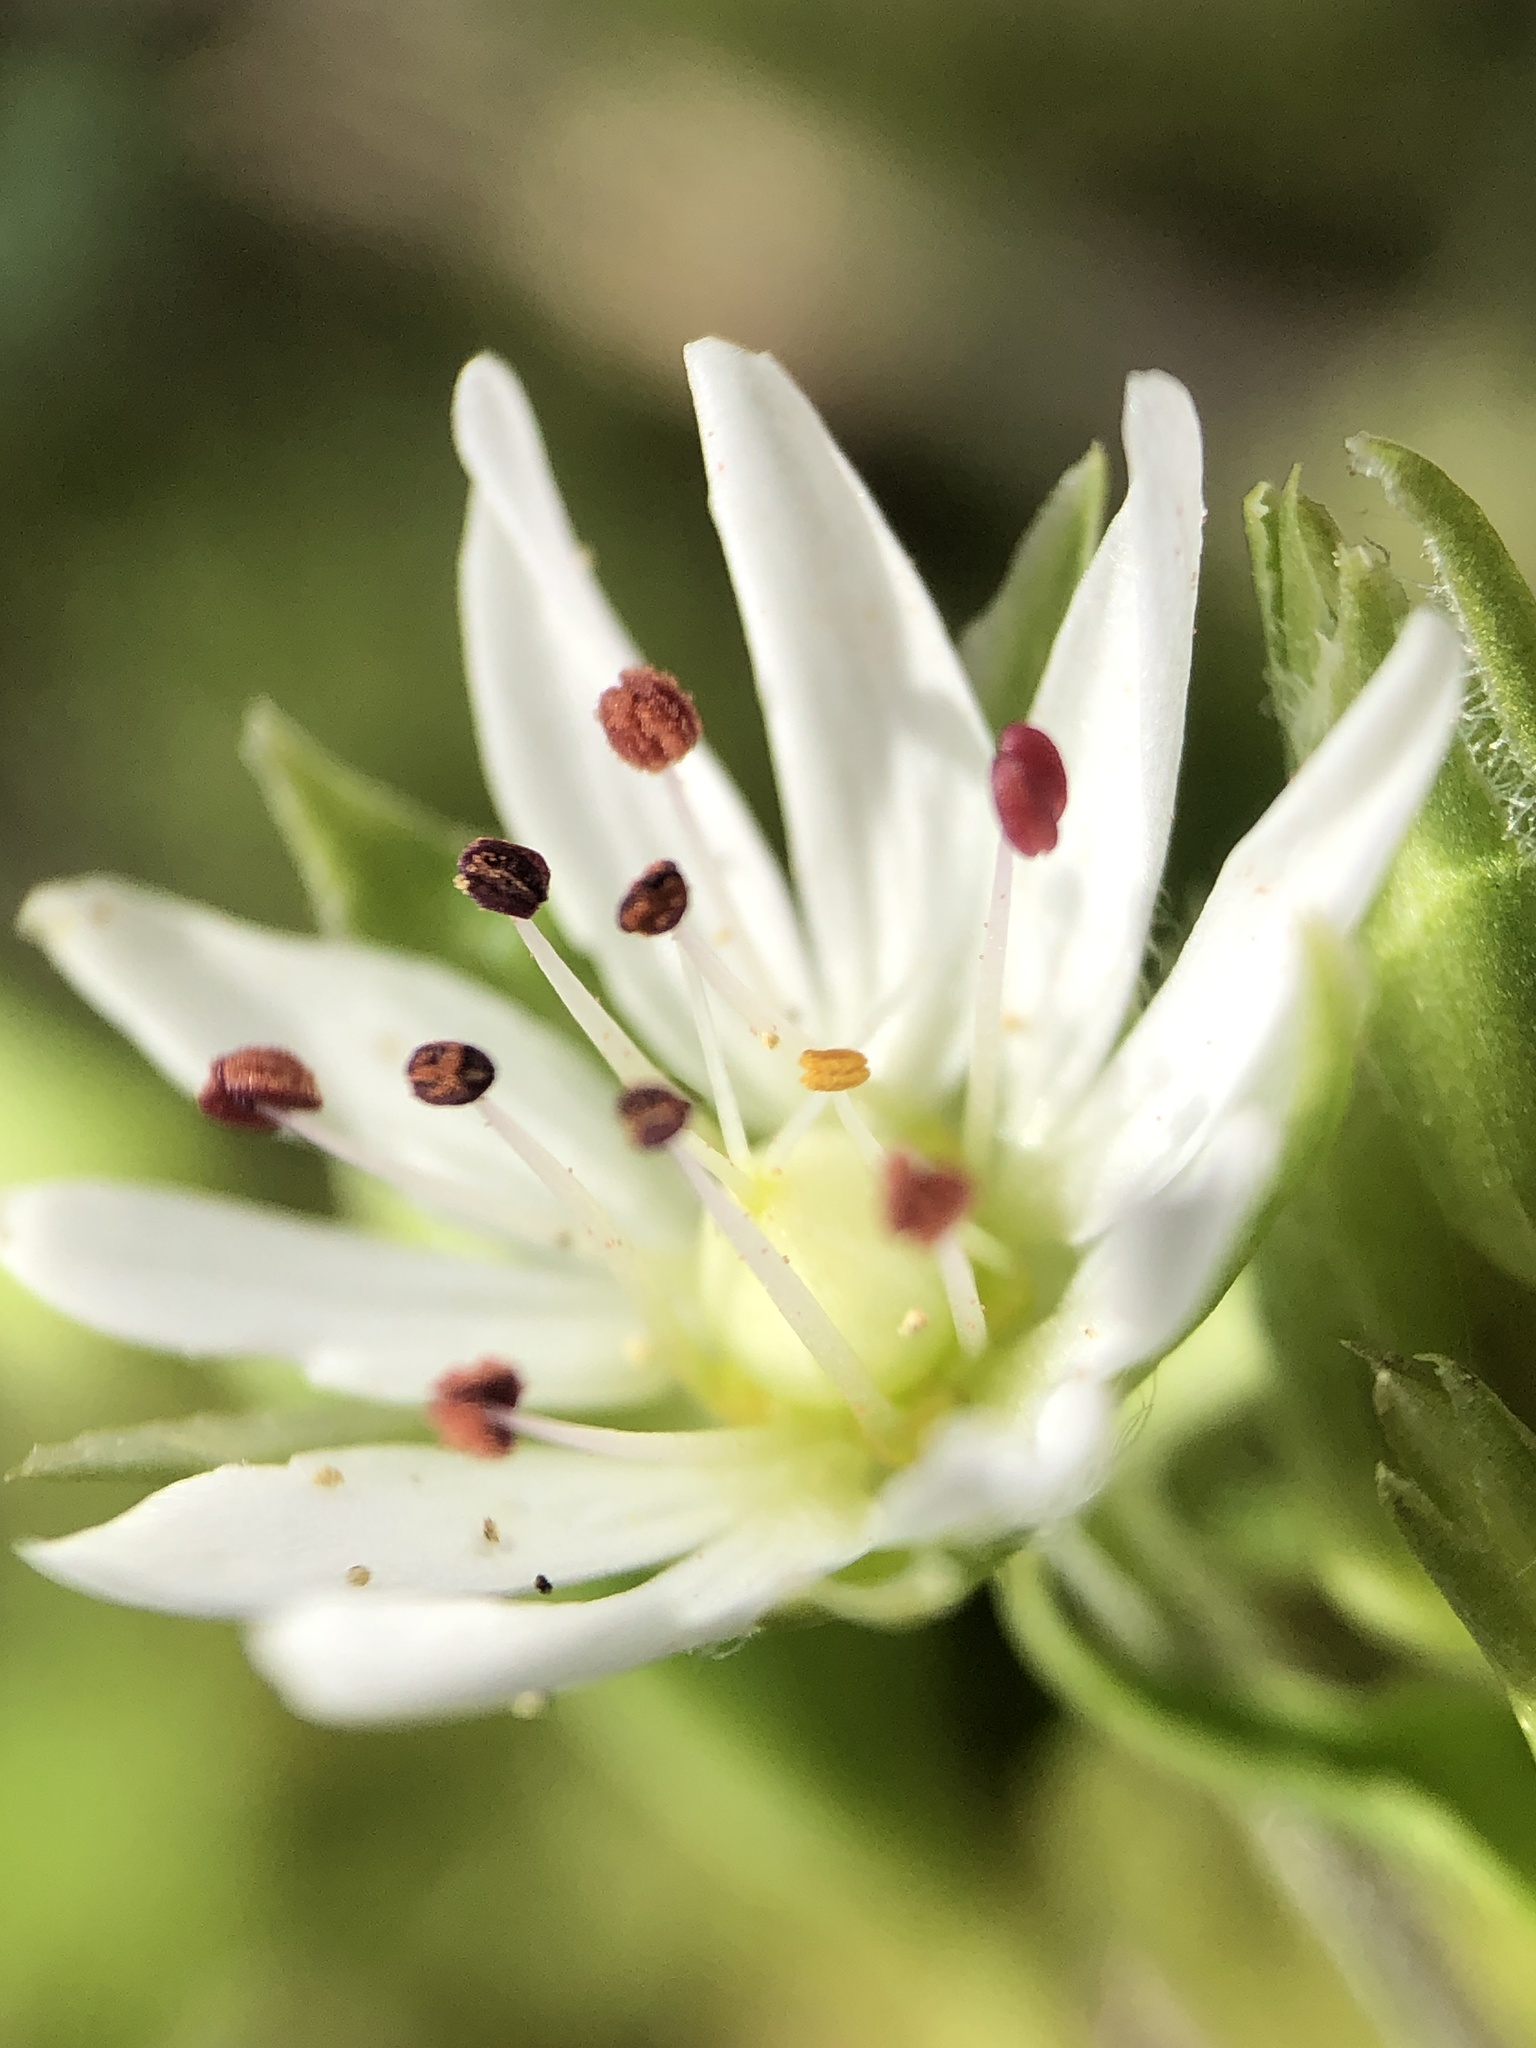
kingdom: Plantae
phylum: Tracheophyta
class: Magnoliopsida
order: Caryophyllales
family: Caryophyllaceae
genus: Stellaria
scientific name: Stellaria pubera
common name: Star chickweed
